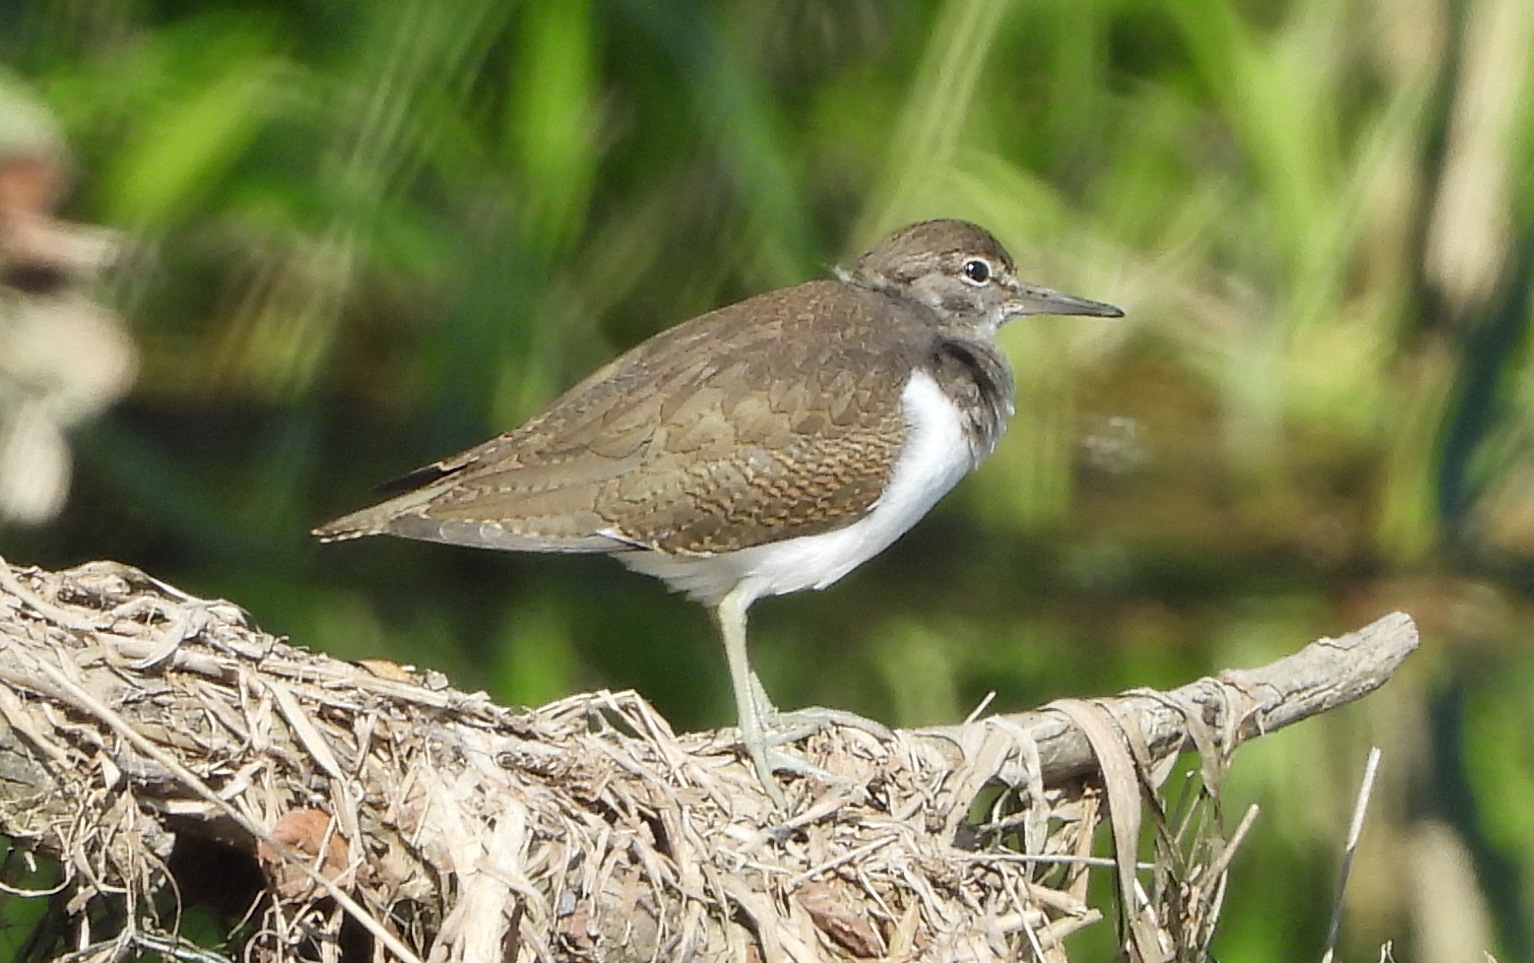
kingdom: Animalia
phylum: Chordata
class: Aves
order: Charadriiformes
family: Scolopacidae
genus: Actitis
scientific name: Actitis hypoleucos
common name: Common sandpiper
